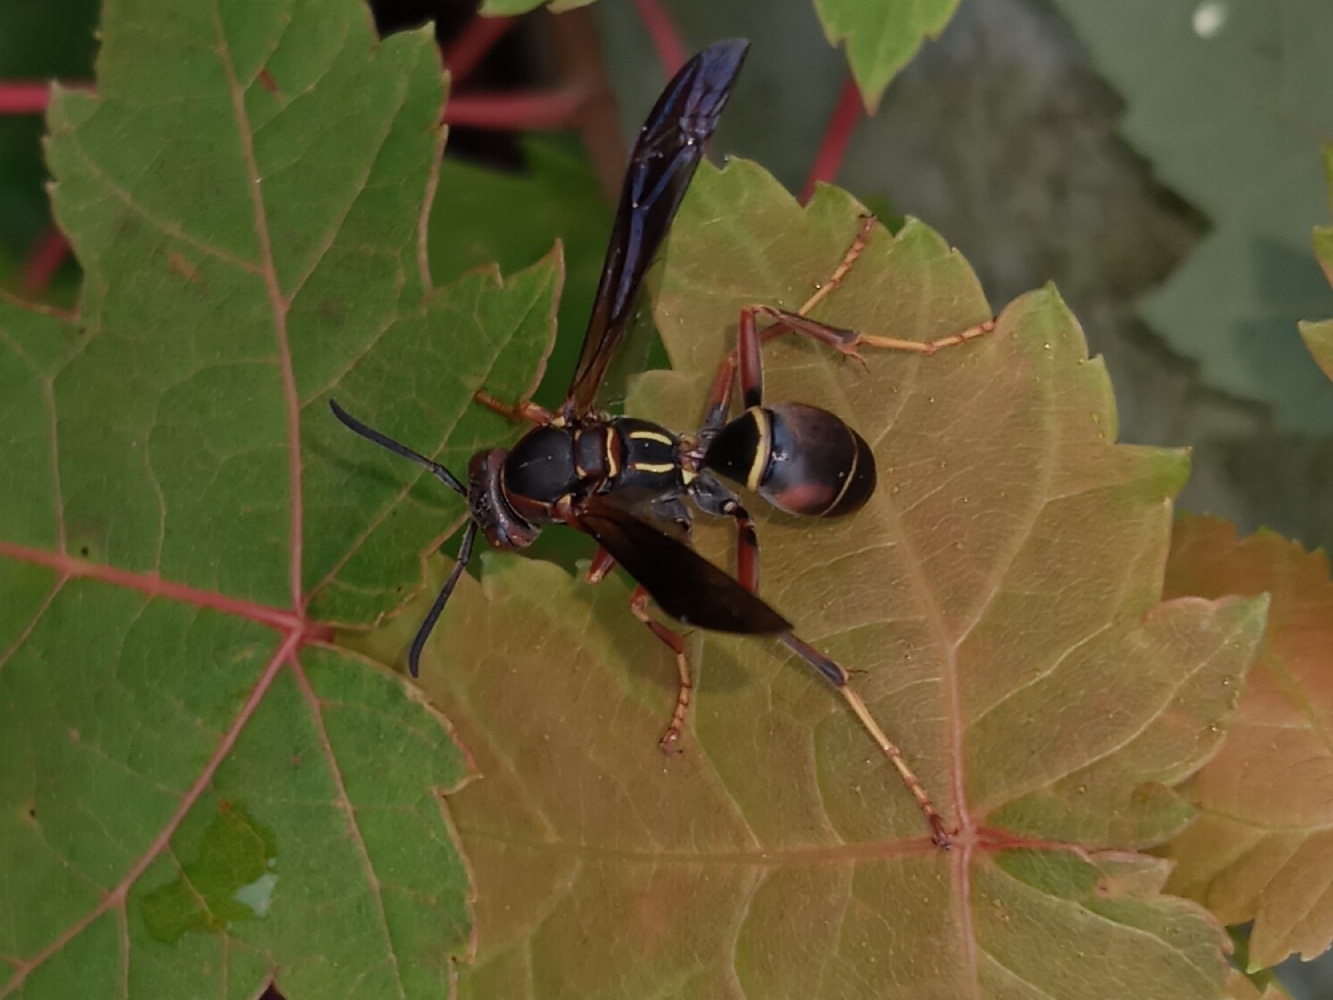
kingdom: Animalia
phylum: Arthropoda
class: Insecta
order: Hymenoptera
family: Eumenidae
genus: Polistes
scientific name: Polistes fuscatus
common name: Dark paper wasp
